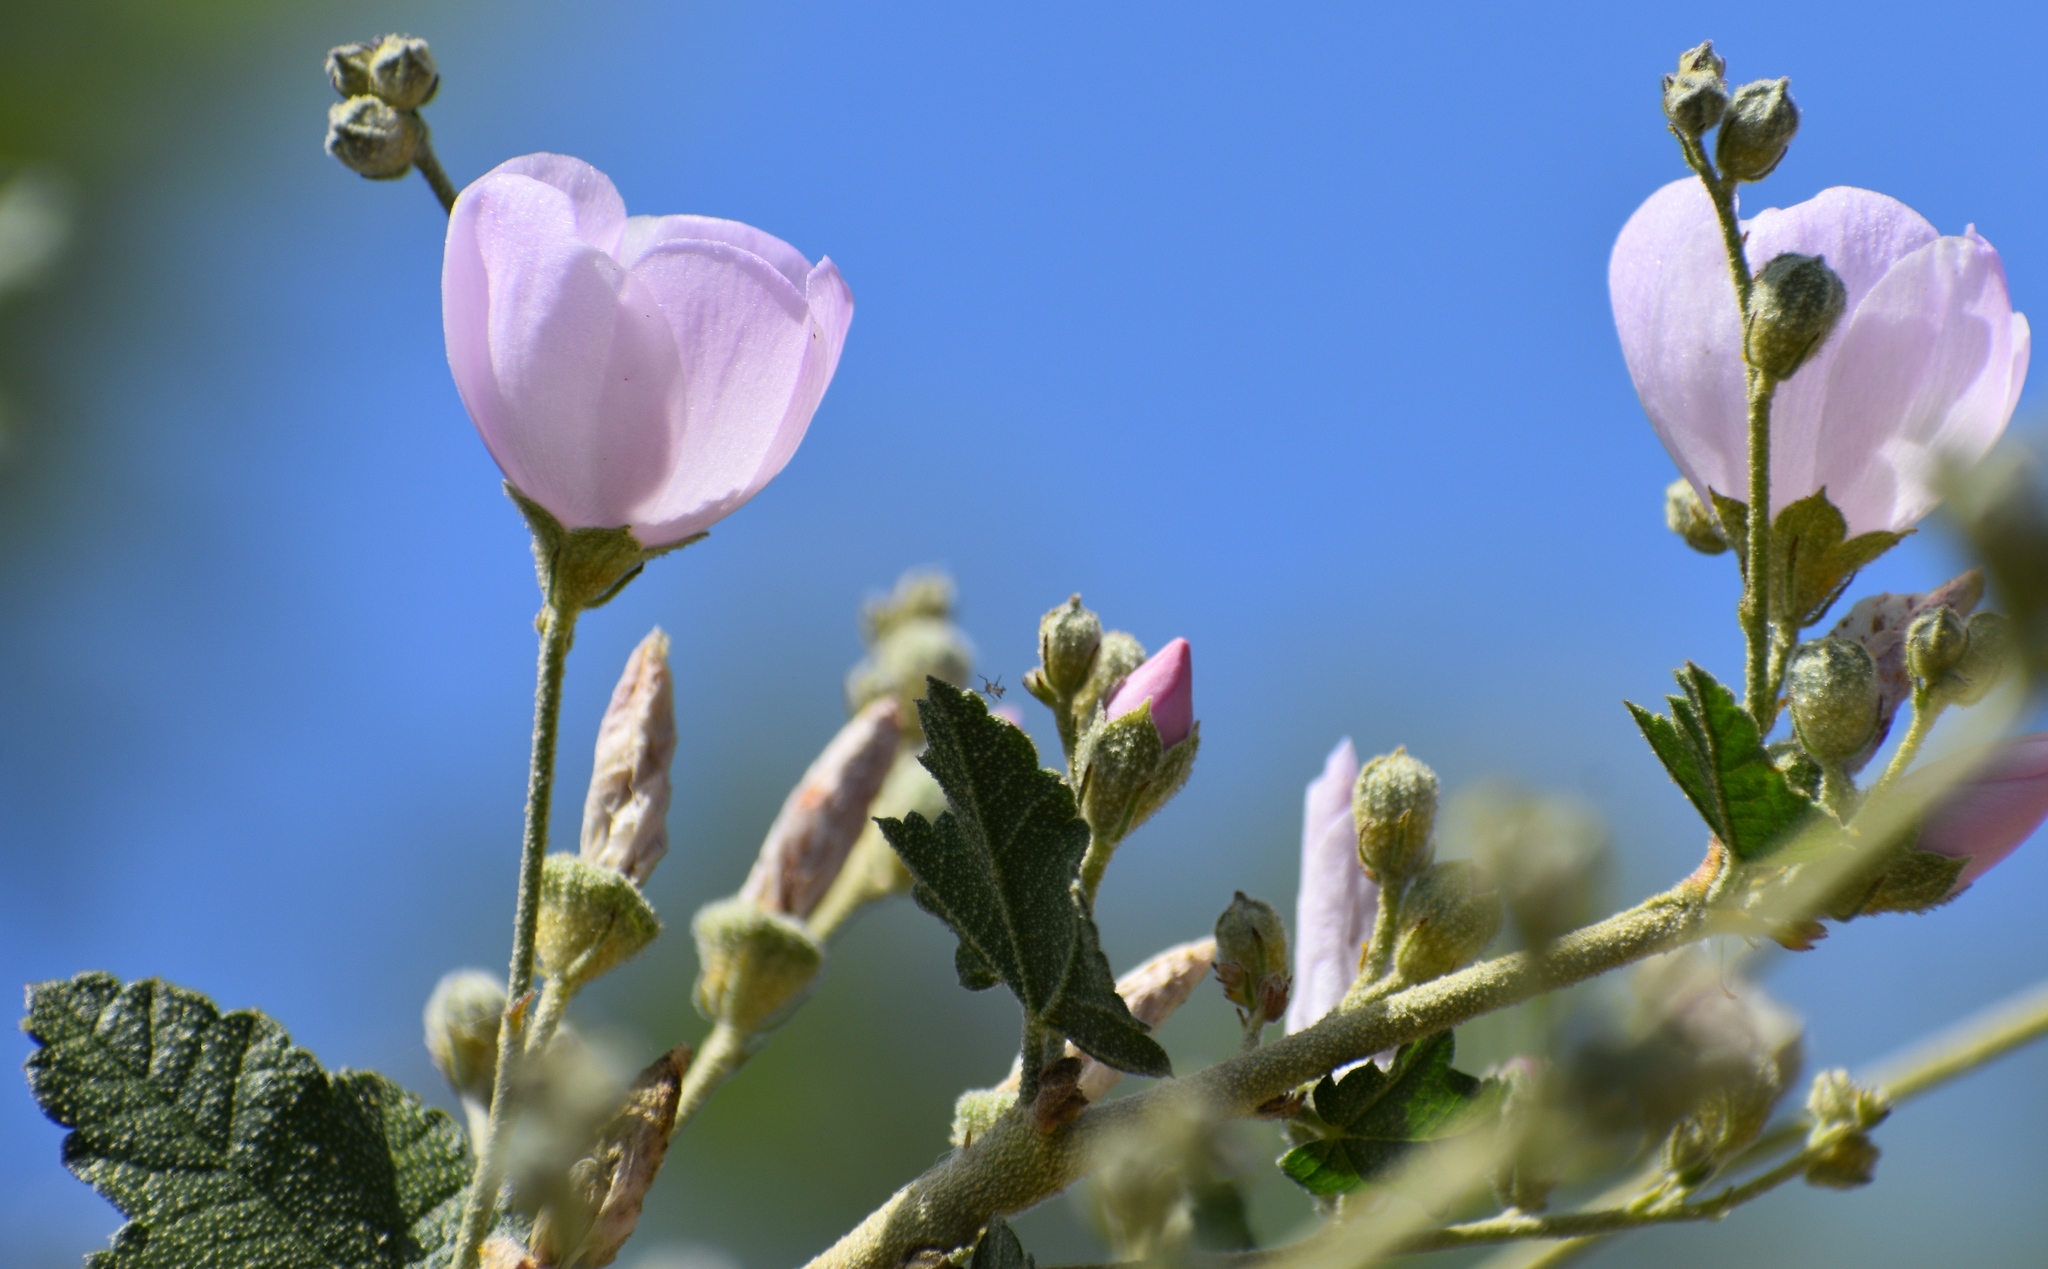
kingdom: Plantae
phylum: Tracheophyta
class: Magnoliopsida
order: Malvales
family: Malvaceae
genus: Malacothamnus
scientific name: Malacothamnus fasciculatus
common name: Sant cruz island bush-mallow
